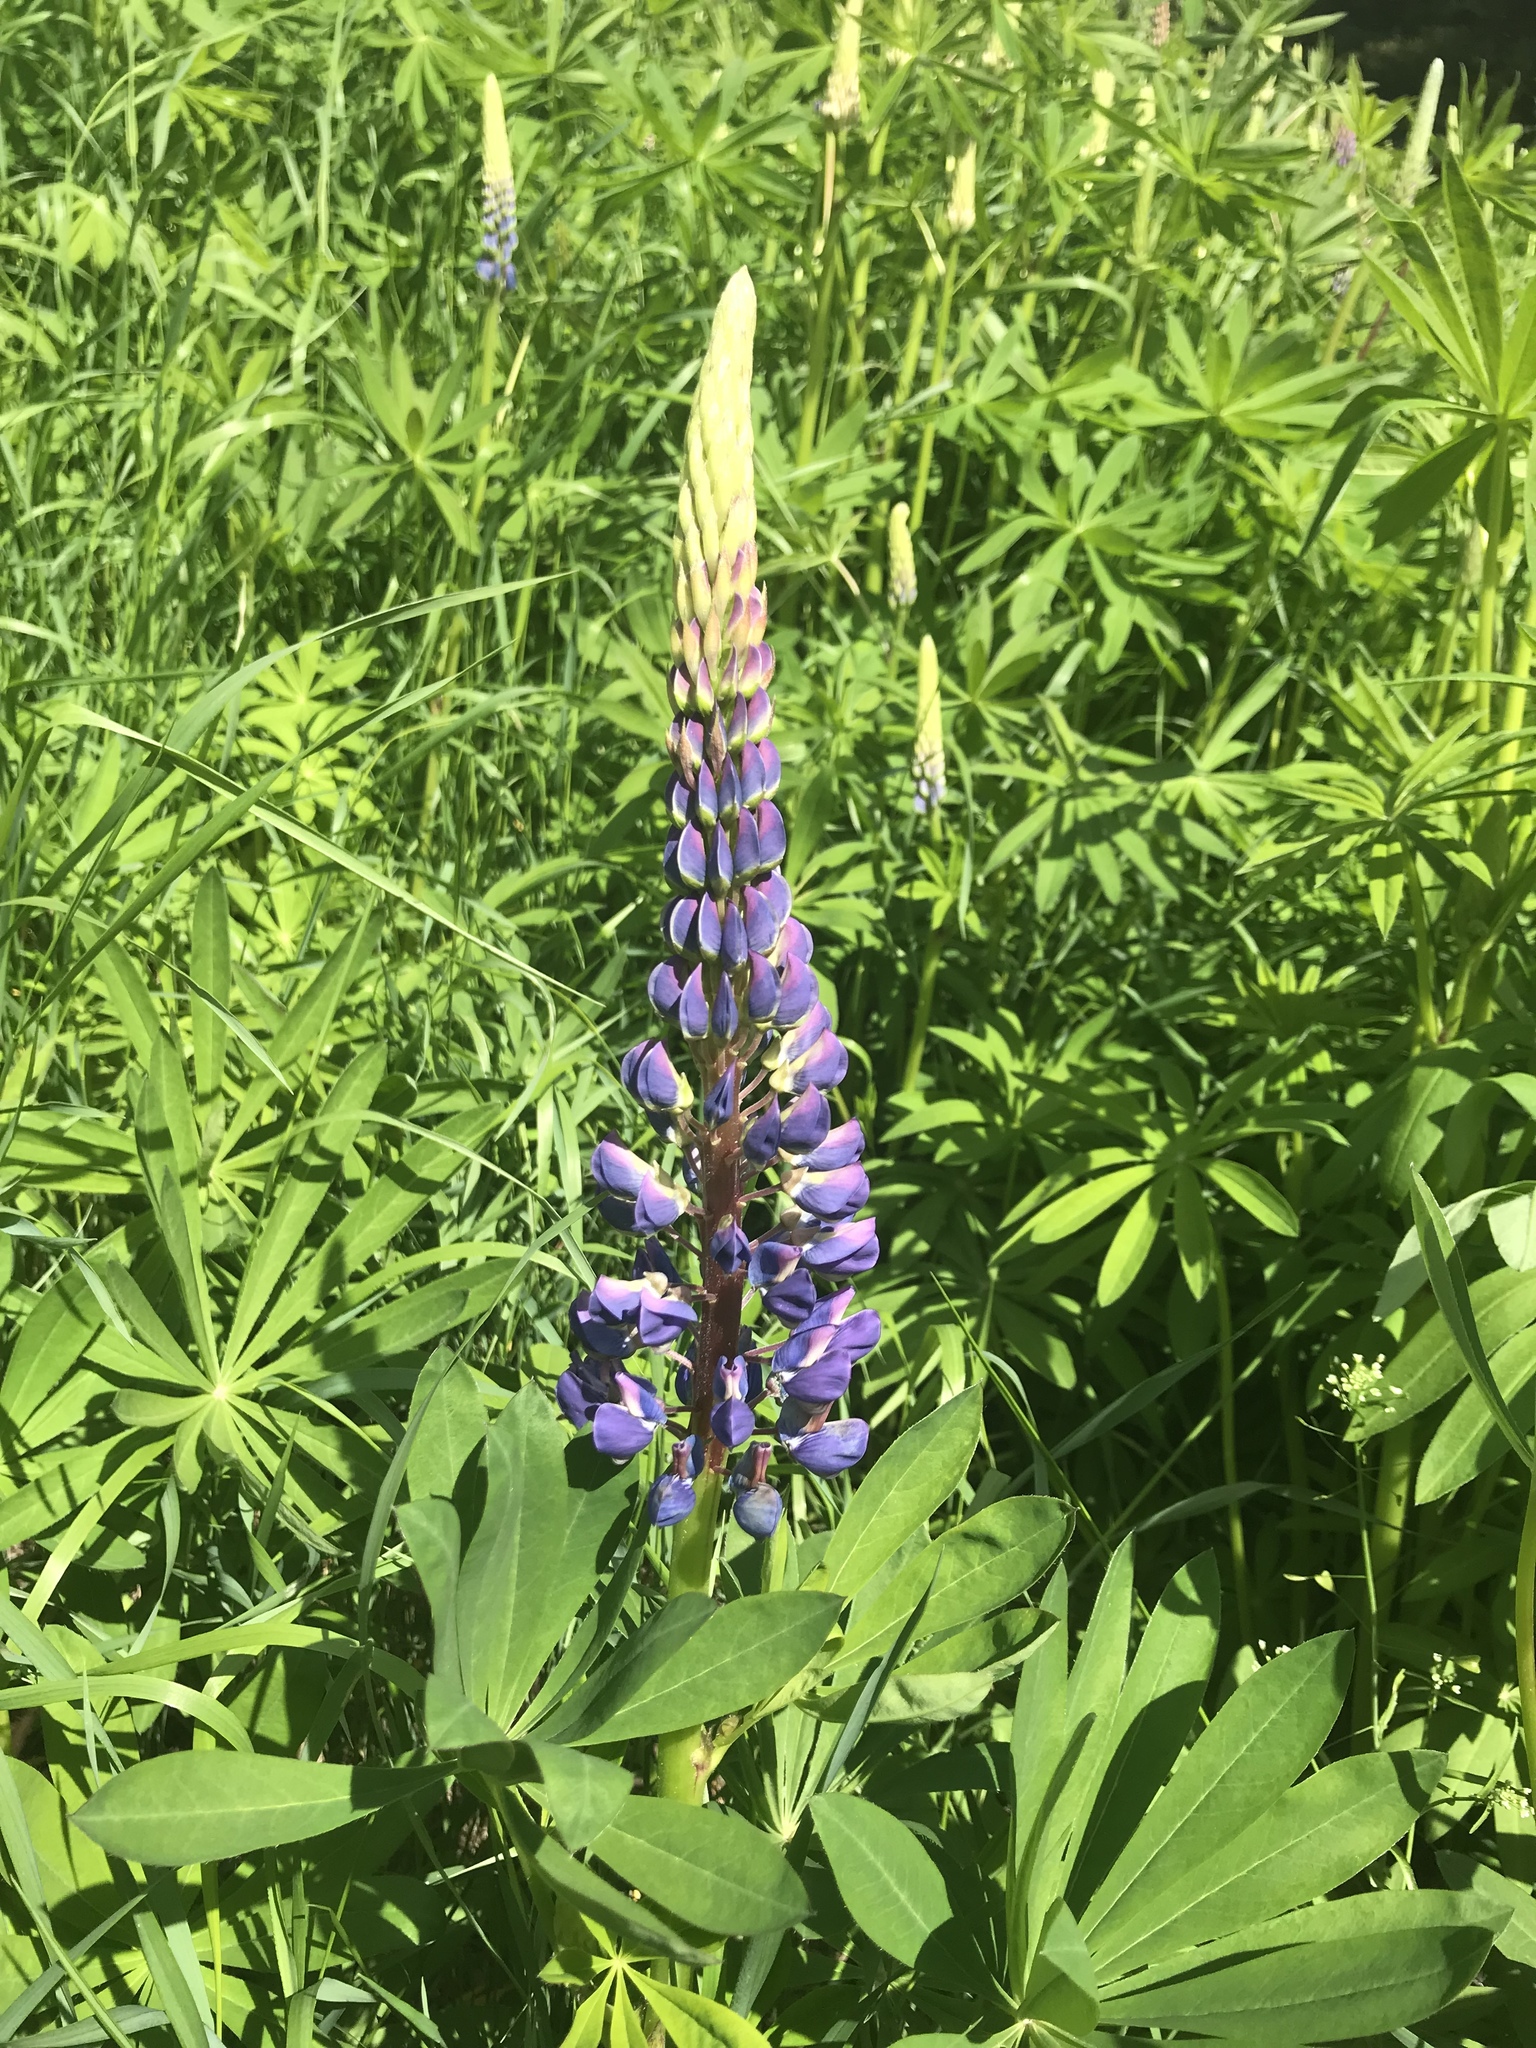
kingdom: Plantae
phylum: Tracheophyta
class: Magnoliopsida
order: Fabales
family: Fabaceae
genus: Lupinus
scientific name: Lupinus polyphyllus
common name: Garden lupin
